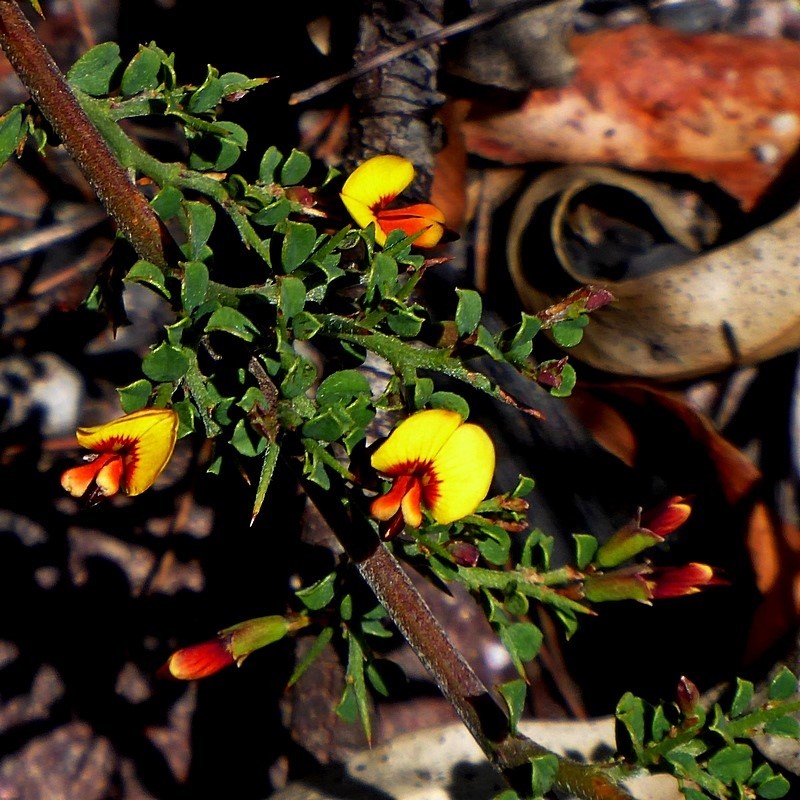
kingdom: Plantae
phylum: Tracheophyta
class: Magnoliopsida
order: Fabales
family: Fabaceae
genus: Bossiaea
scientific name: Bossiaea obcordata
